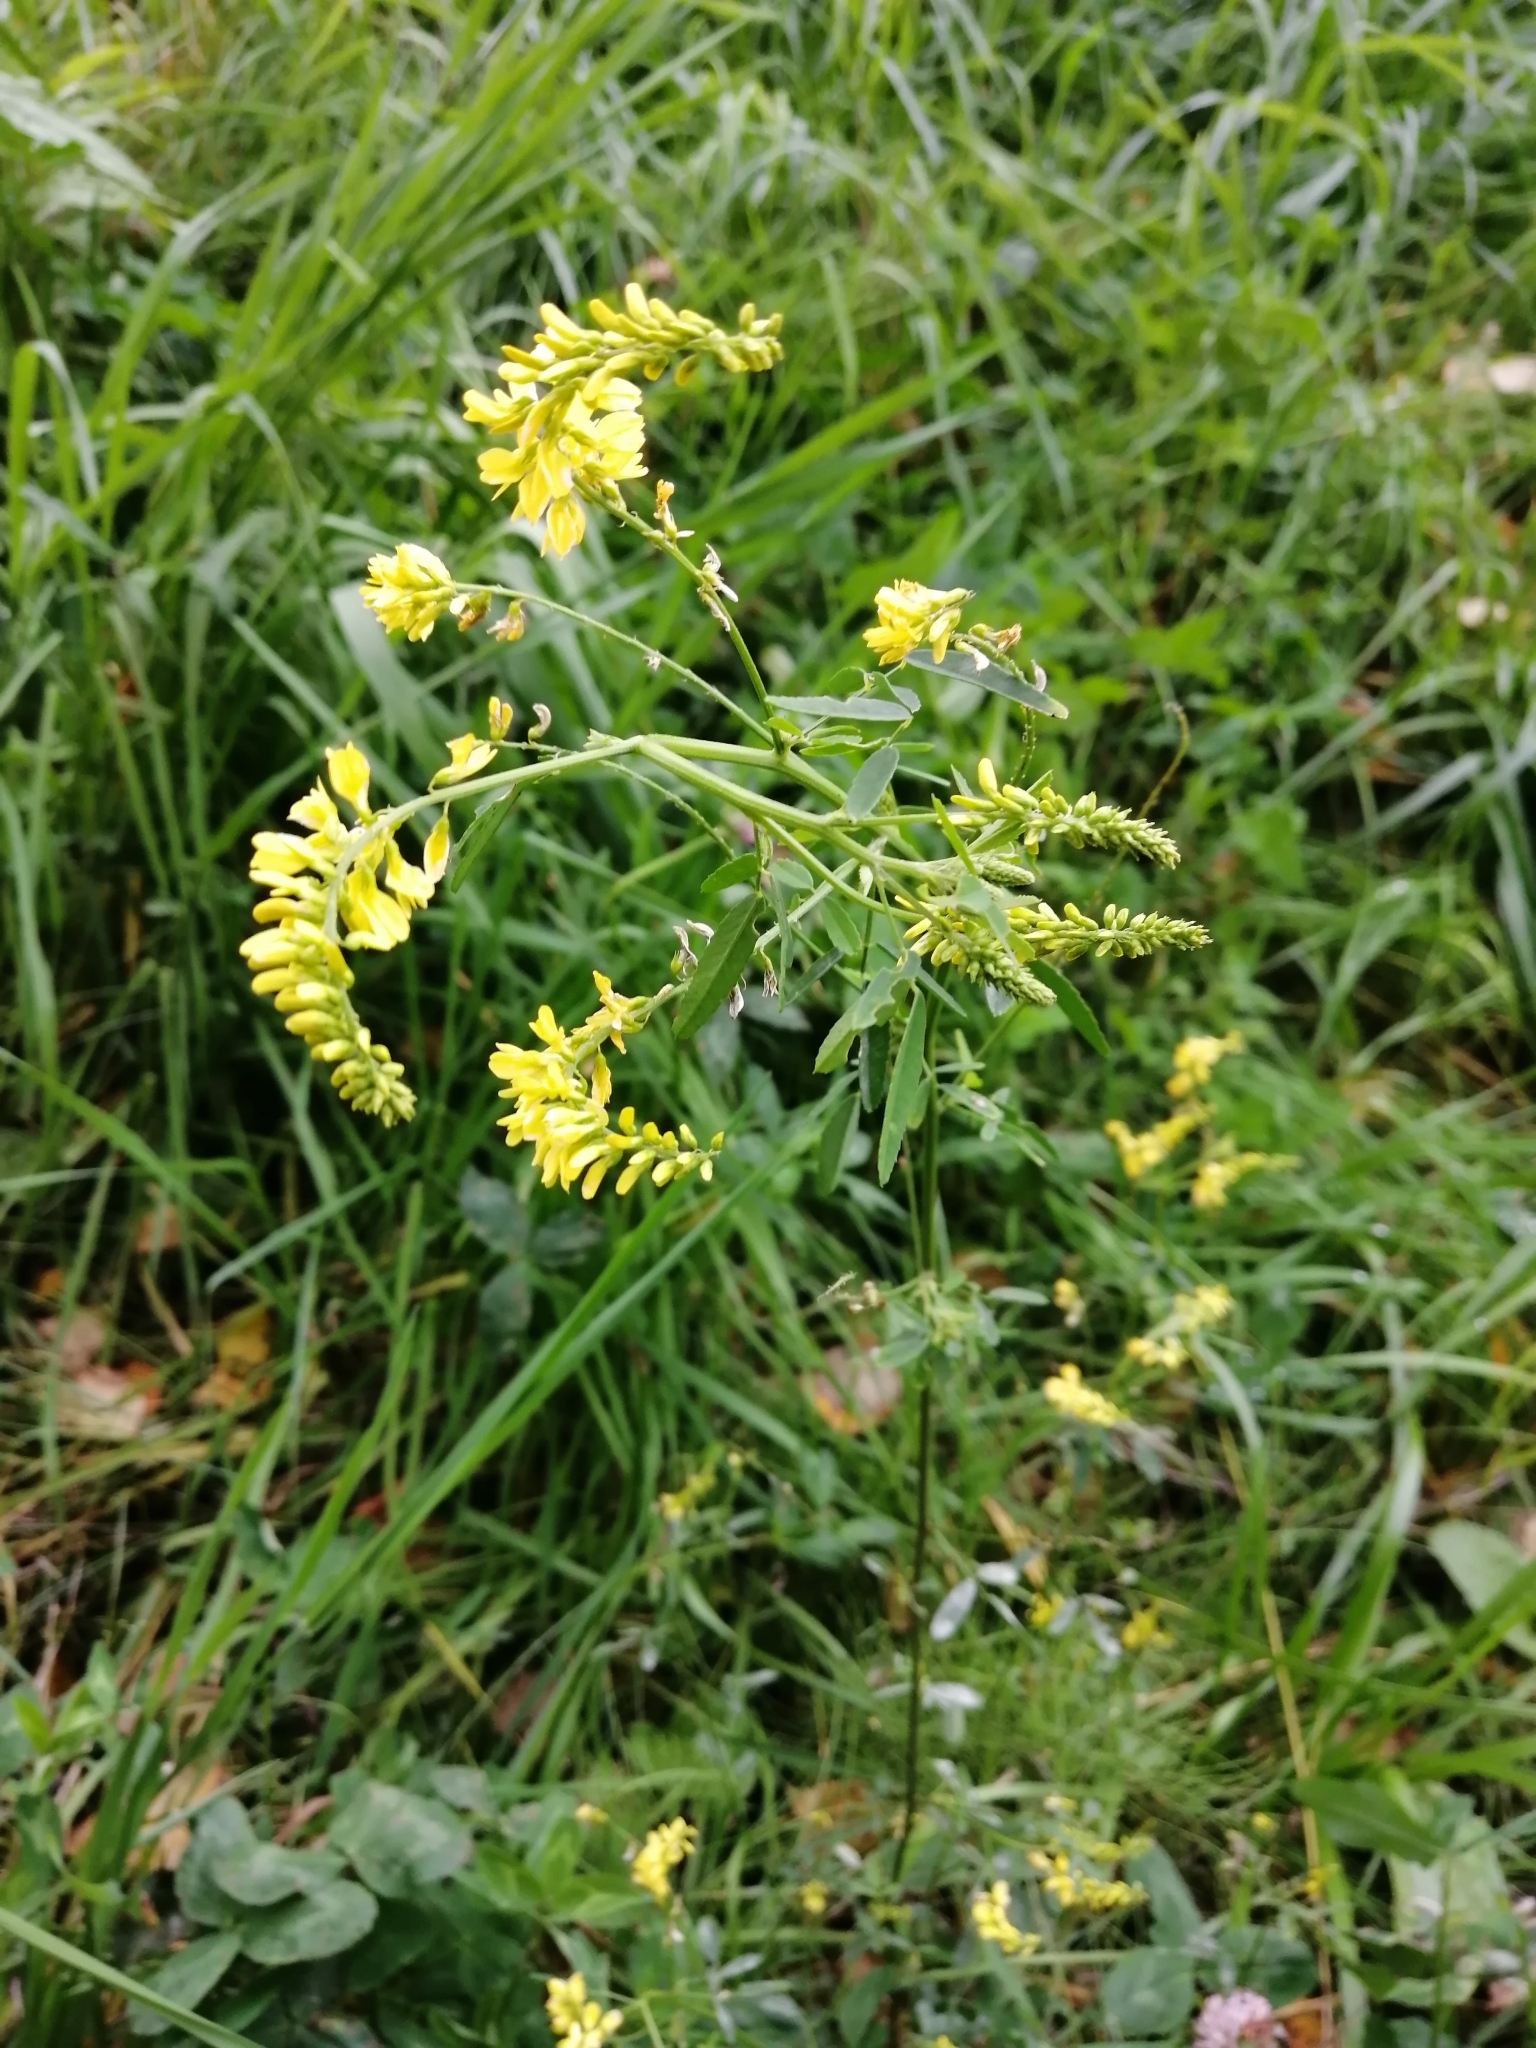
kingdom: Plantae
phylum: Tracheophyta
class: Magnoliopsida
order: Fabales
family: Fabaceae
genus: Melilotus
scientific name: Melilotus officinalis
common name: Sweetclover
